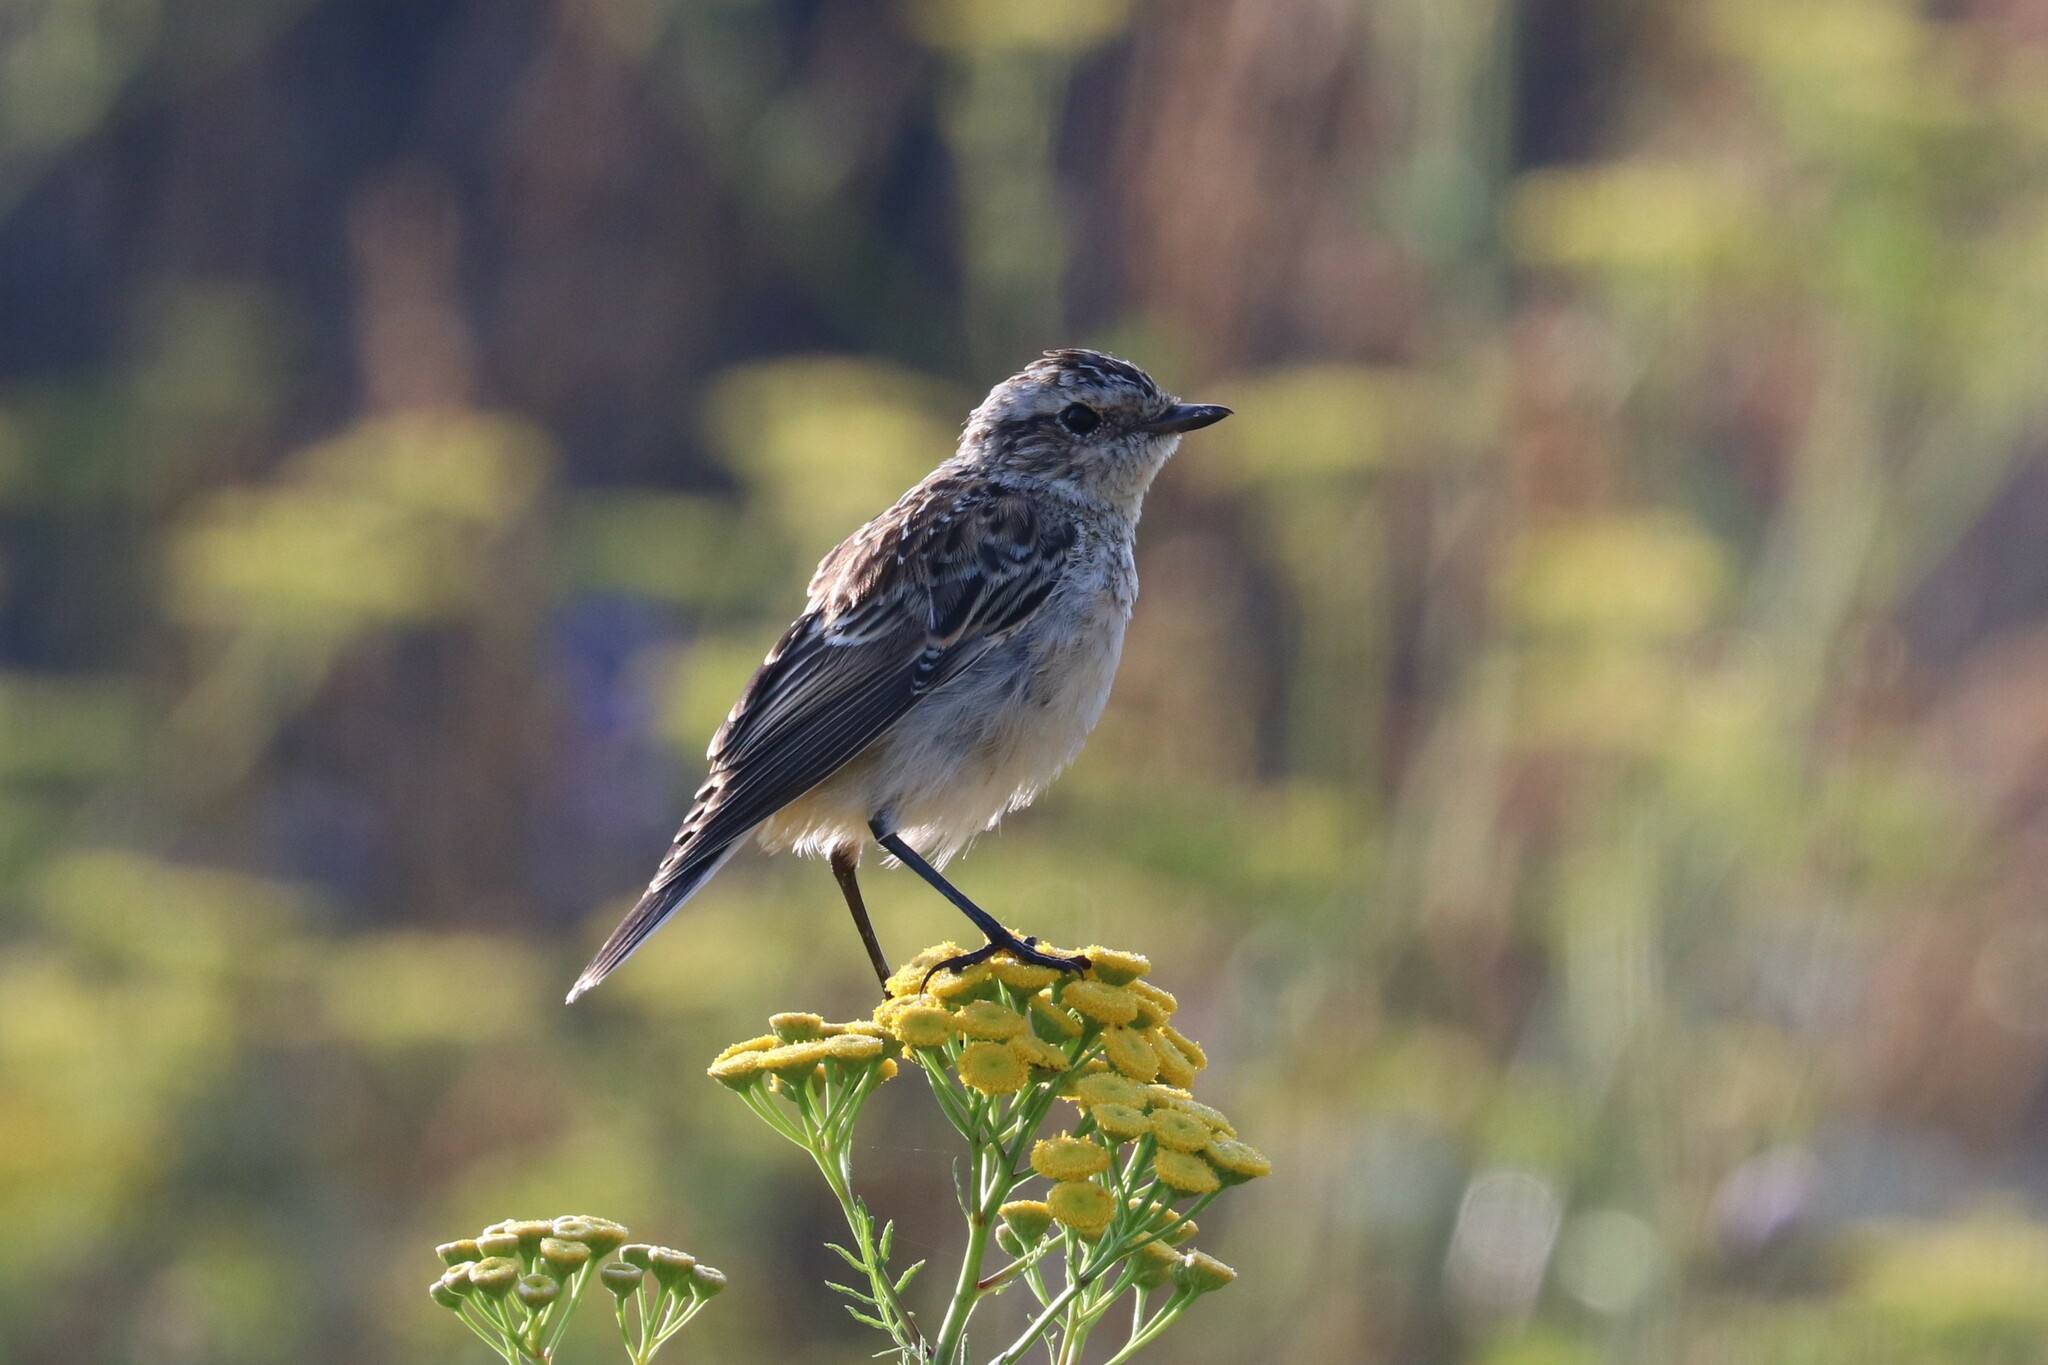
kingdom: Animalia
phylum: Chordata
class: Aves
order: Passeriformes
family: Muscicapidae
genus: Saxicola
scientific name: Saxicola rubetra
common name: Whinchat
